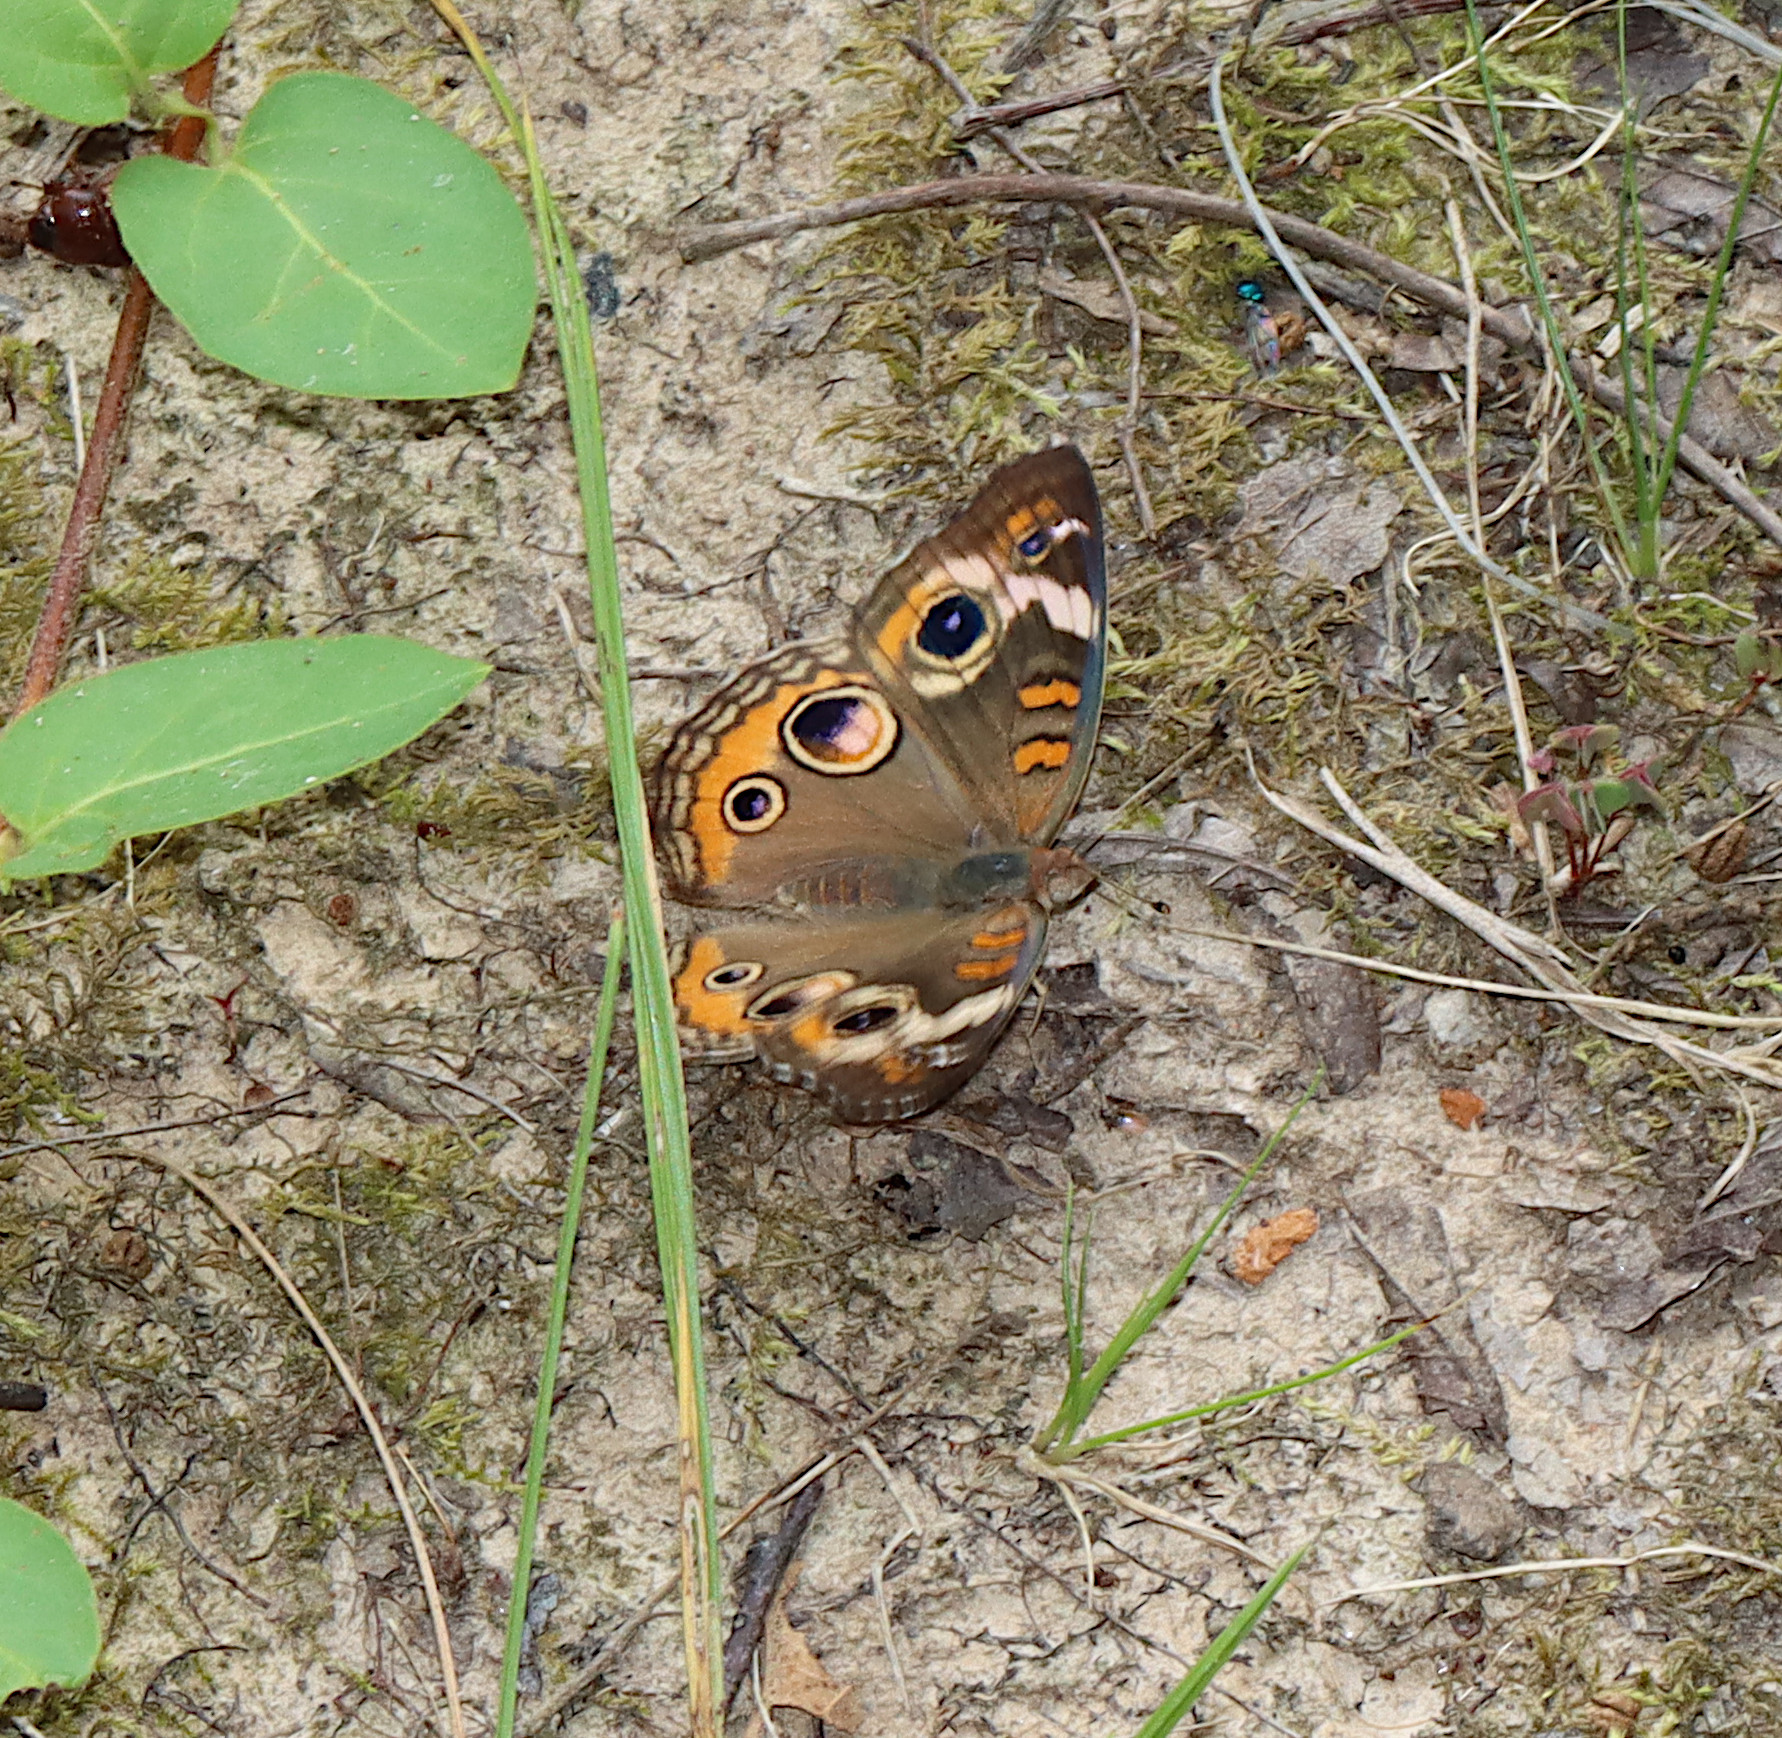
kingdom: Animalia
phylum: Arthropoda
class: Insecta
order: Lepidoptera
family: Nymphalidae
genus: Junonia
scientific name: Junonia coenia
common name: Common buckeye
